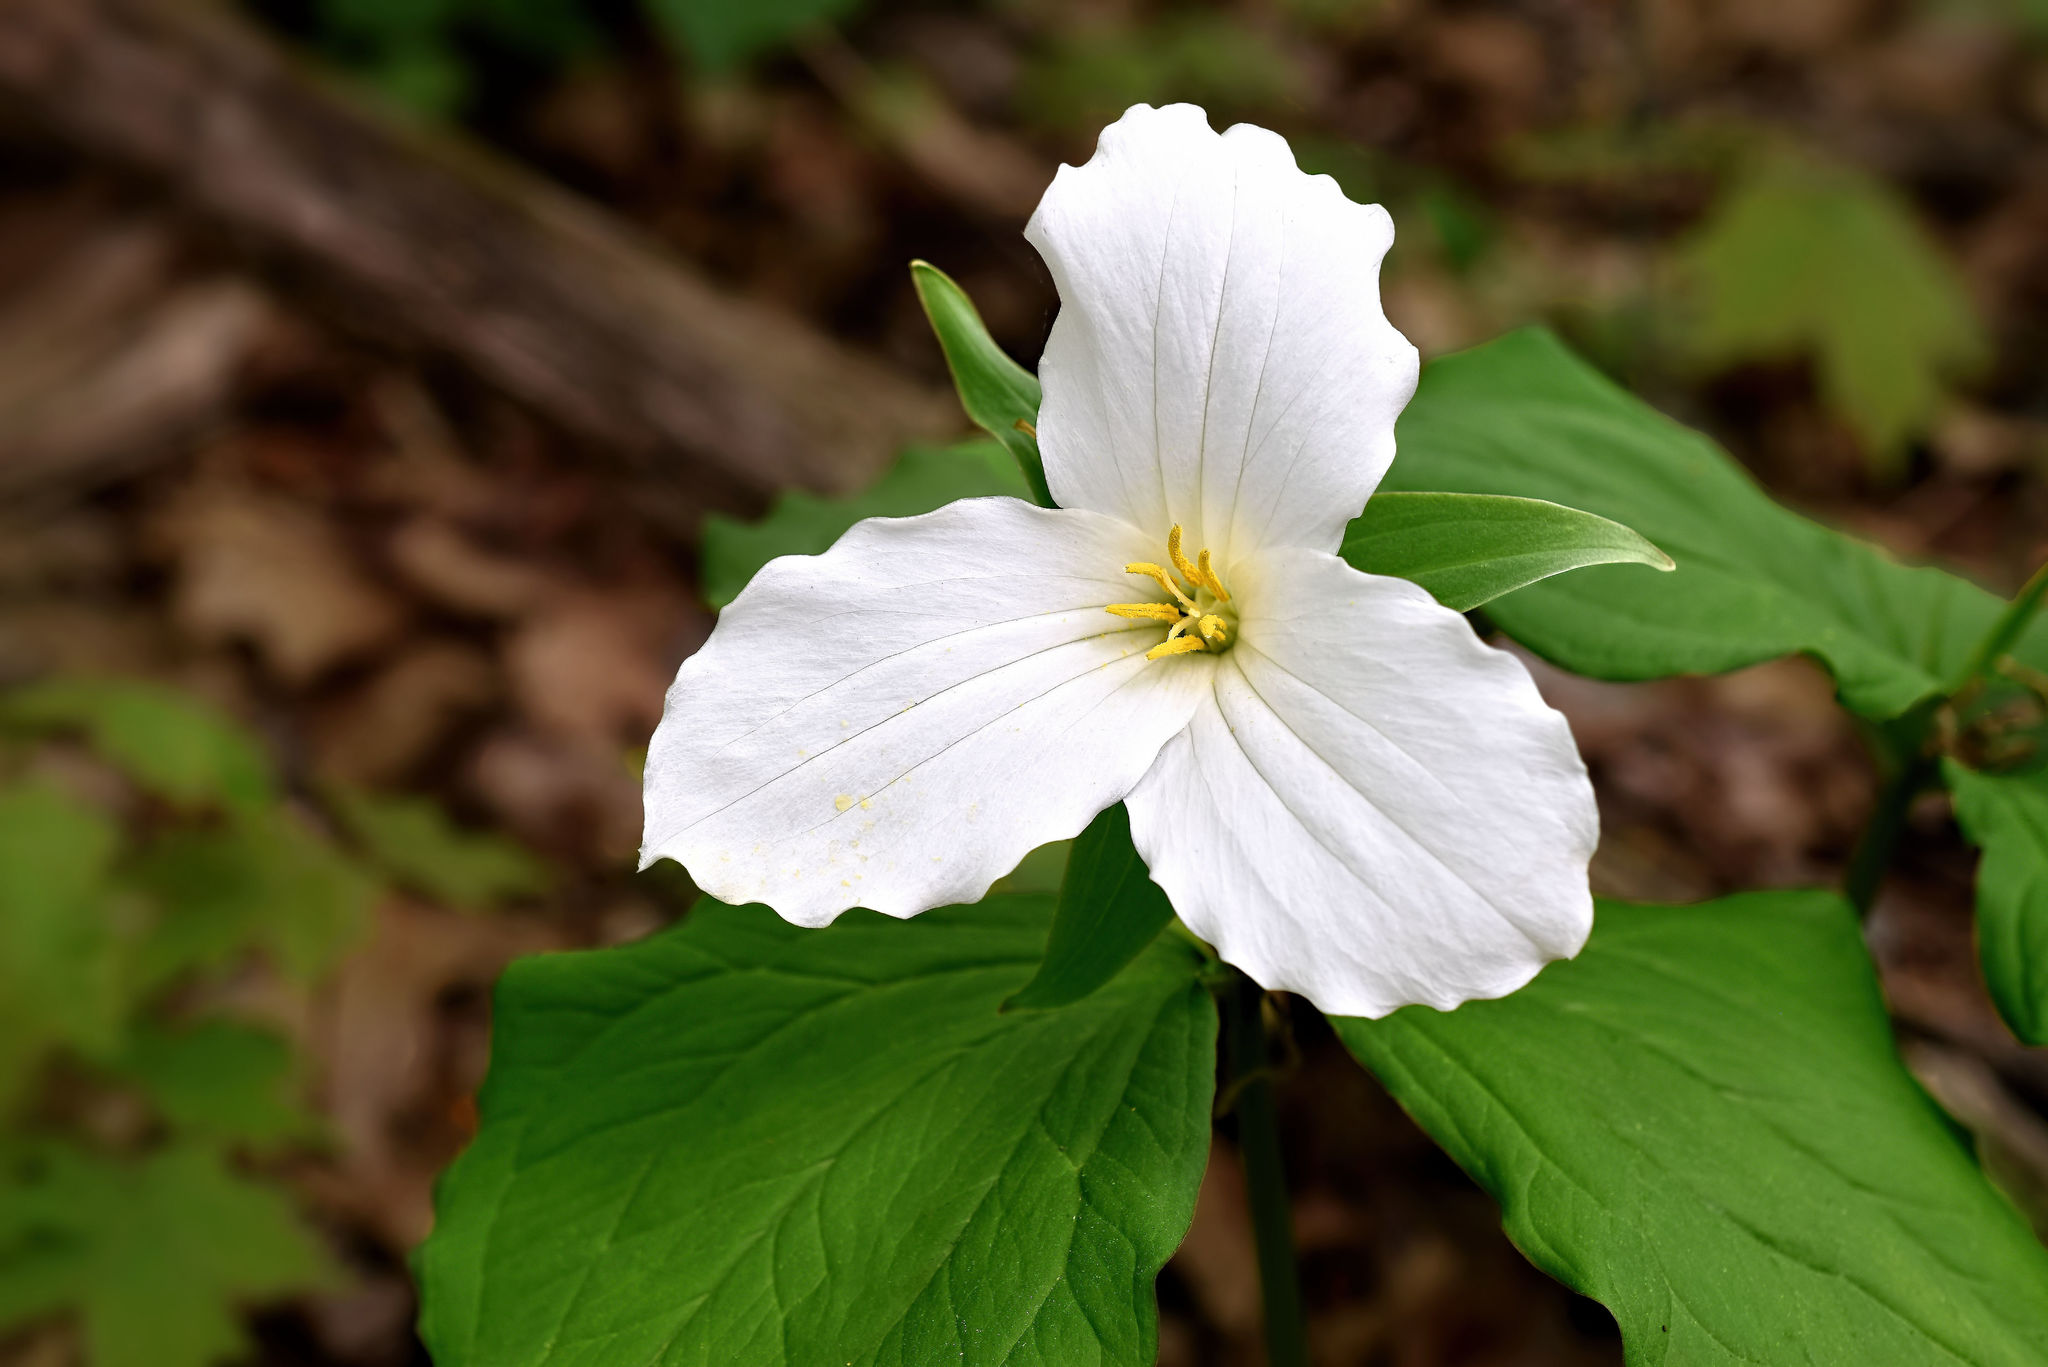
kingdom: Plantae
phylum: Tracheophyta
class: Liliopsida
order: Liliales
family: Melanthiaceae
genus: Trillium
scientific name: Trillium grandiflorum
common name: Great white trillium
